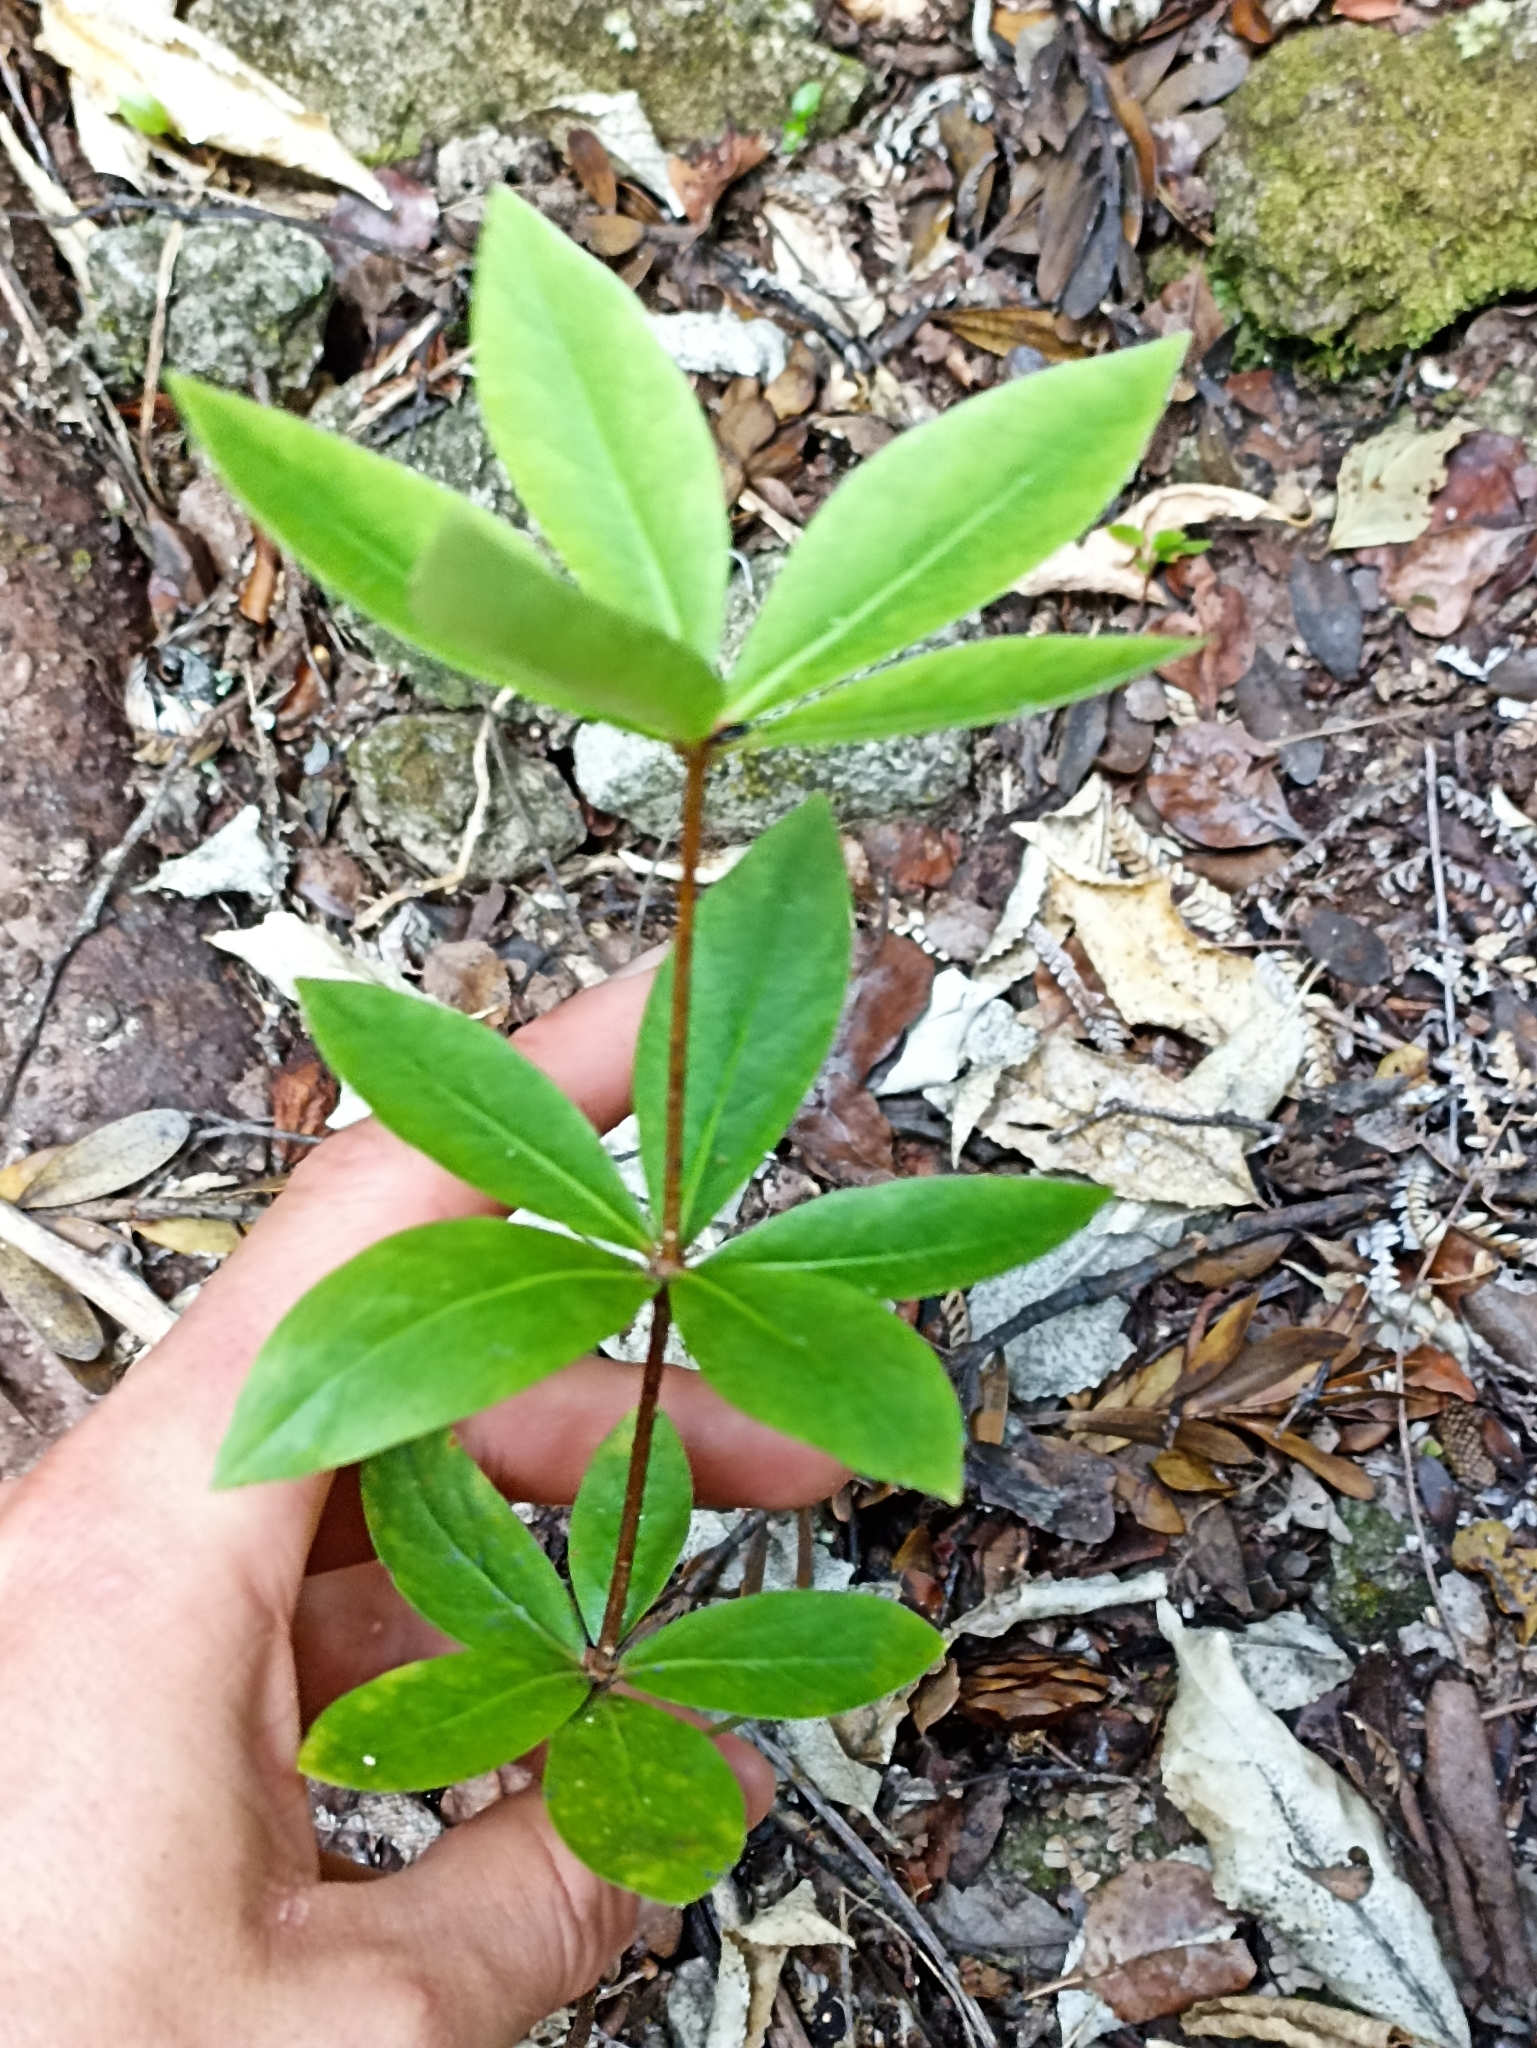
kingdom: Plantae
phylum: Tracheophyta
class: Magnoliopsida
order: Apiales
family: Pittosporaceae
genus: Pittosporum
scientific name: Pittosporum cornifolium
